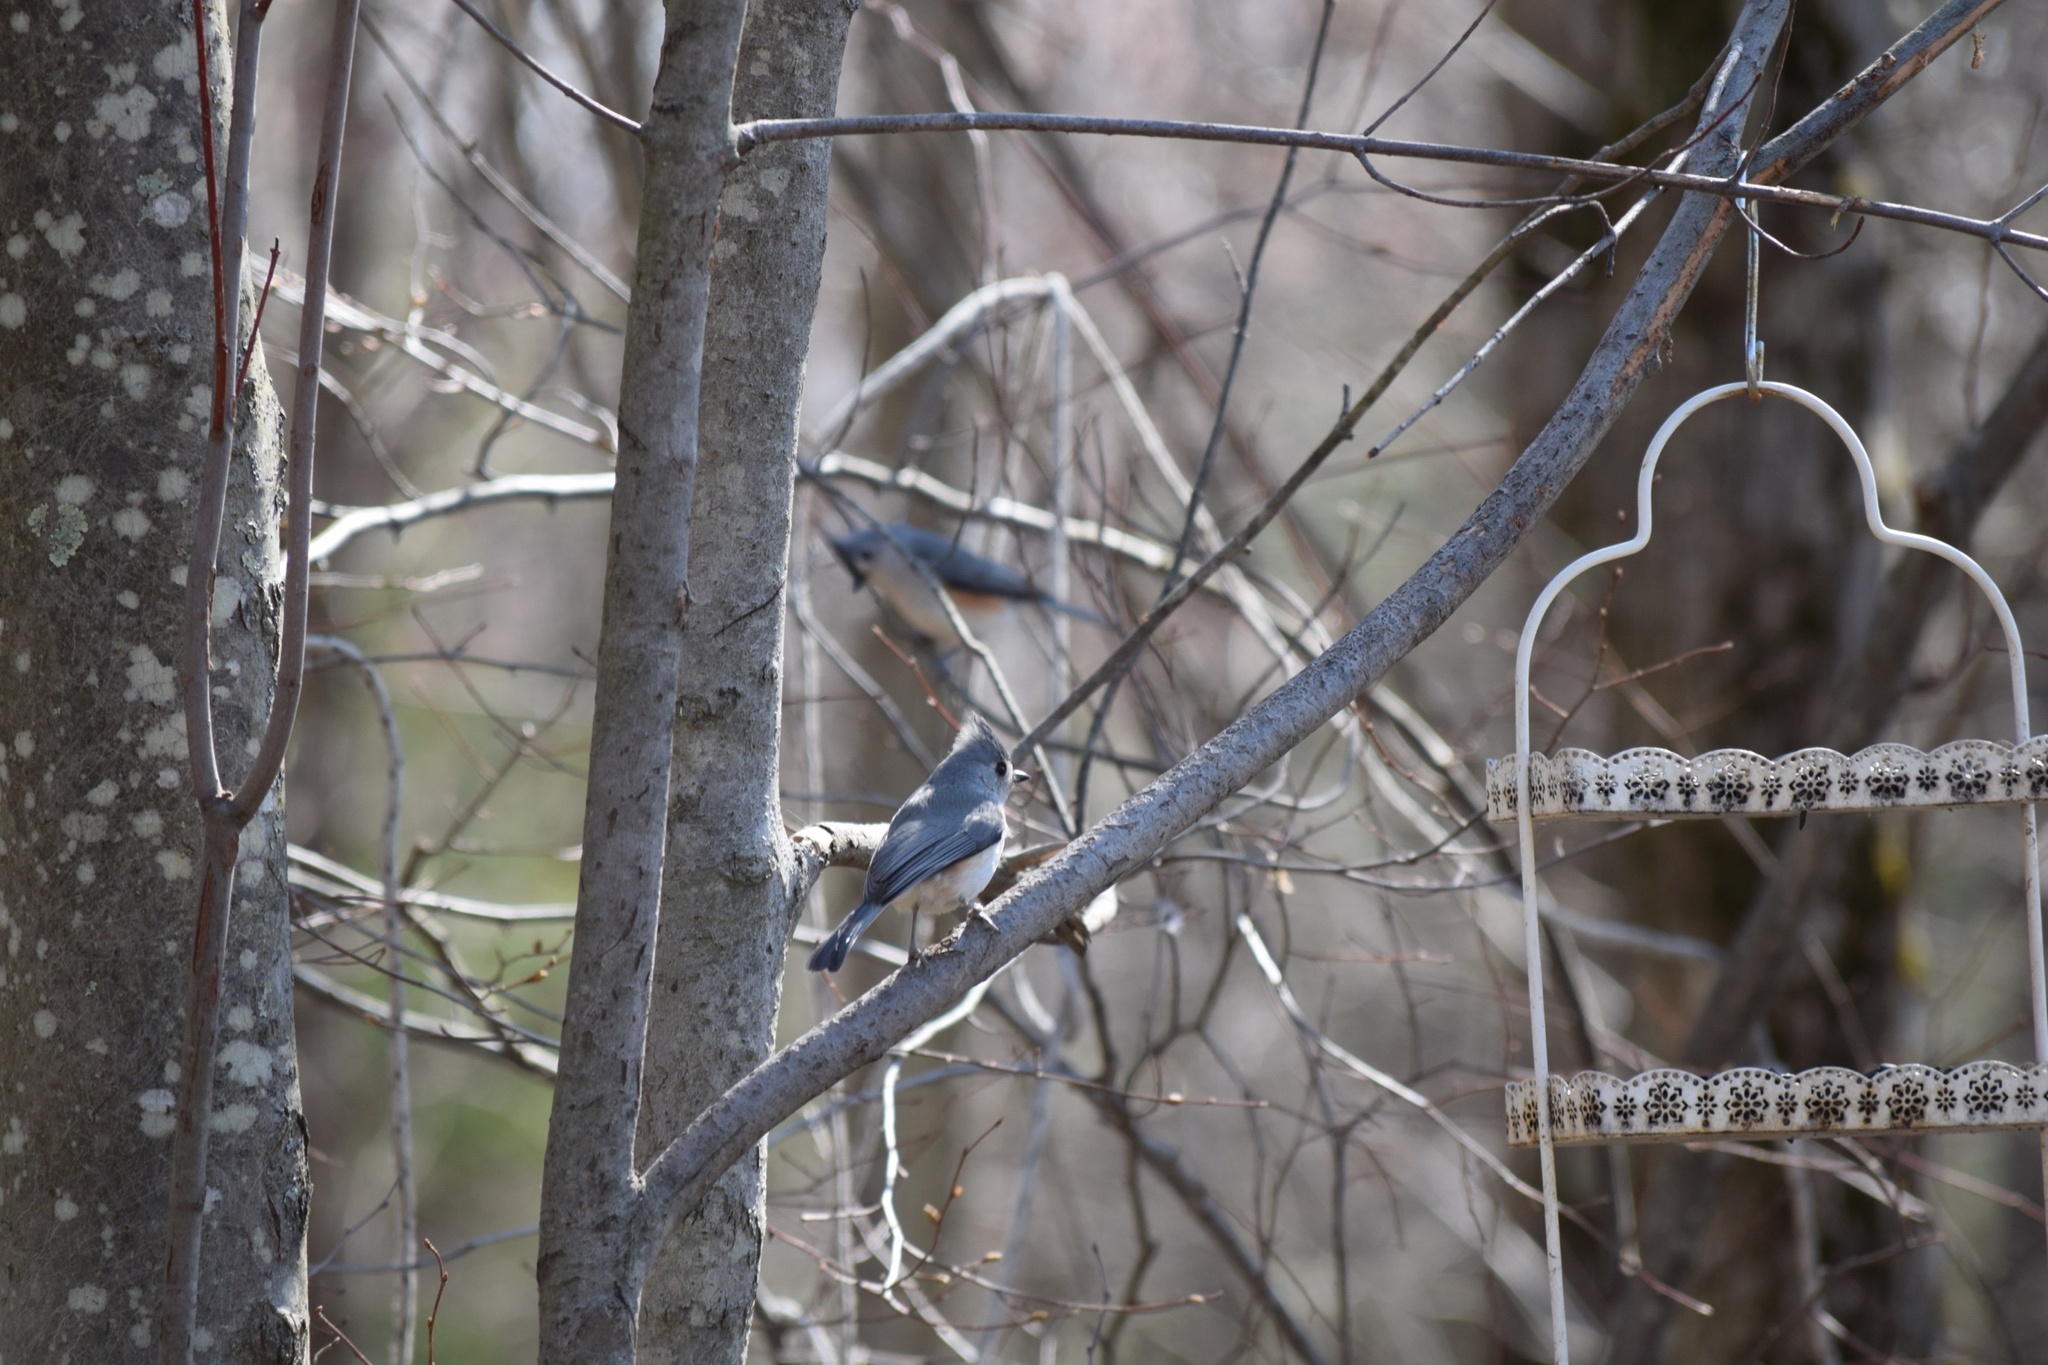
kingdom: Animalia
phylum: Chordata
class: Aves
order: Passeriformes
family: Paridae
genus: Baeolophus
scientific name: Baeolophus bicolor
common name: Tufted titmouse
